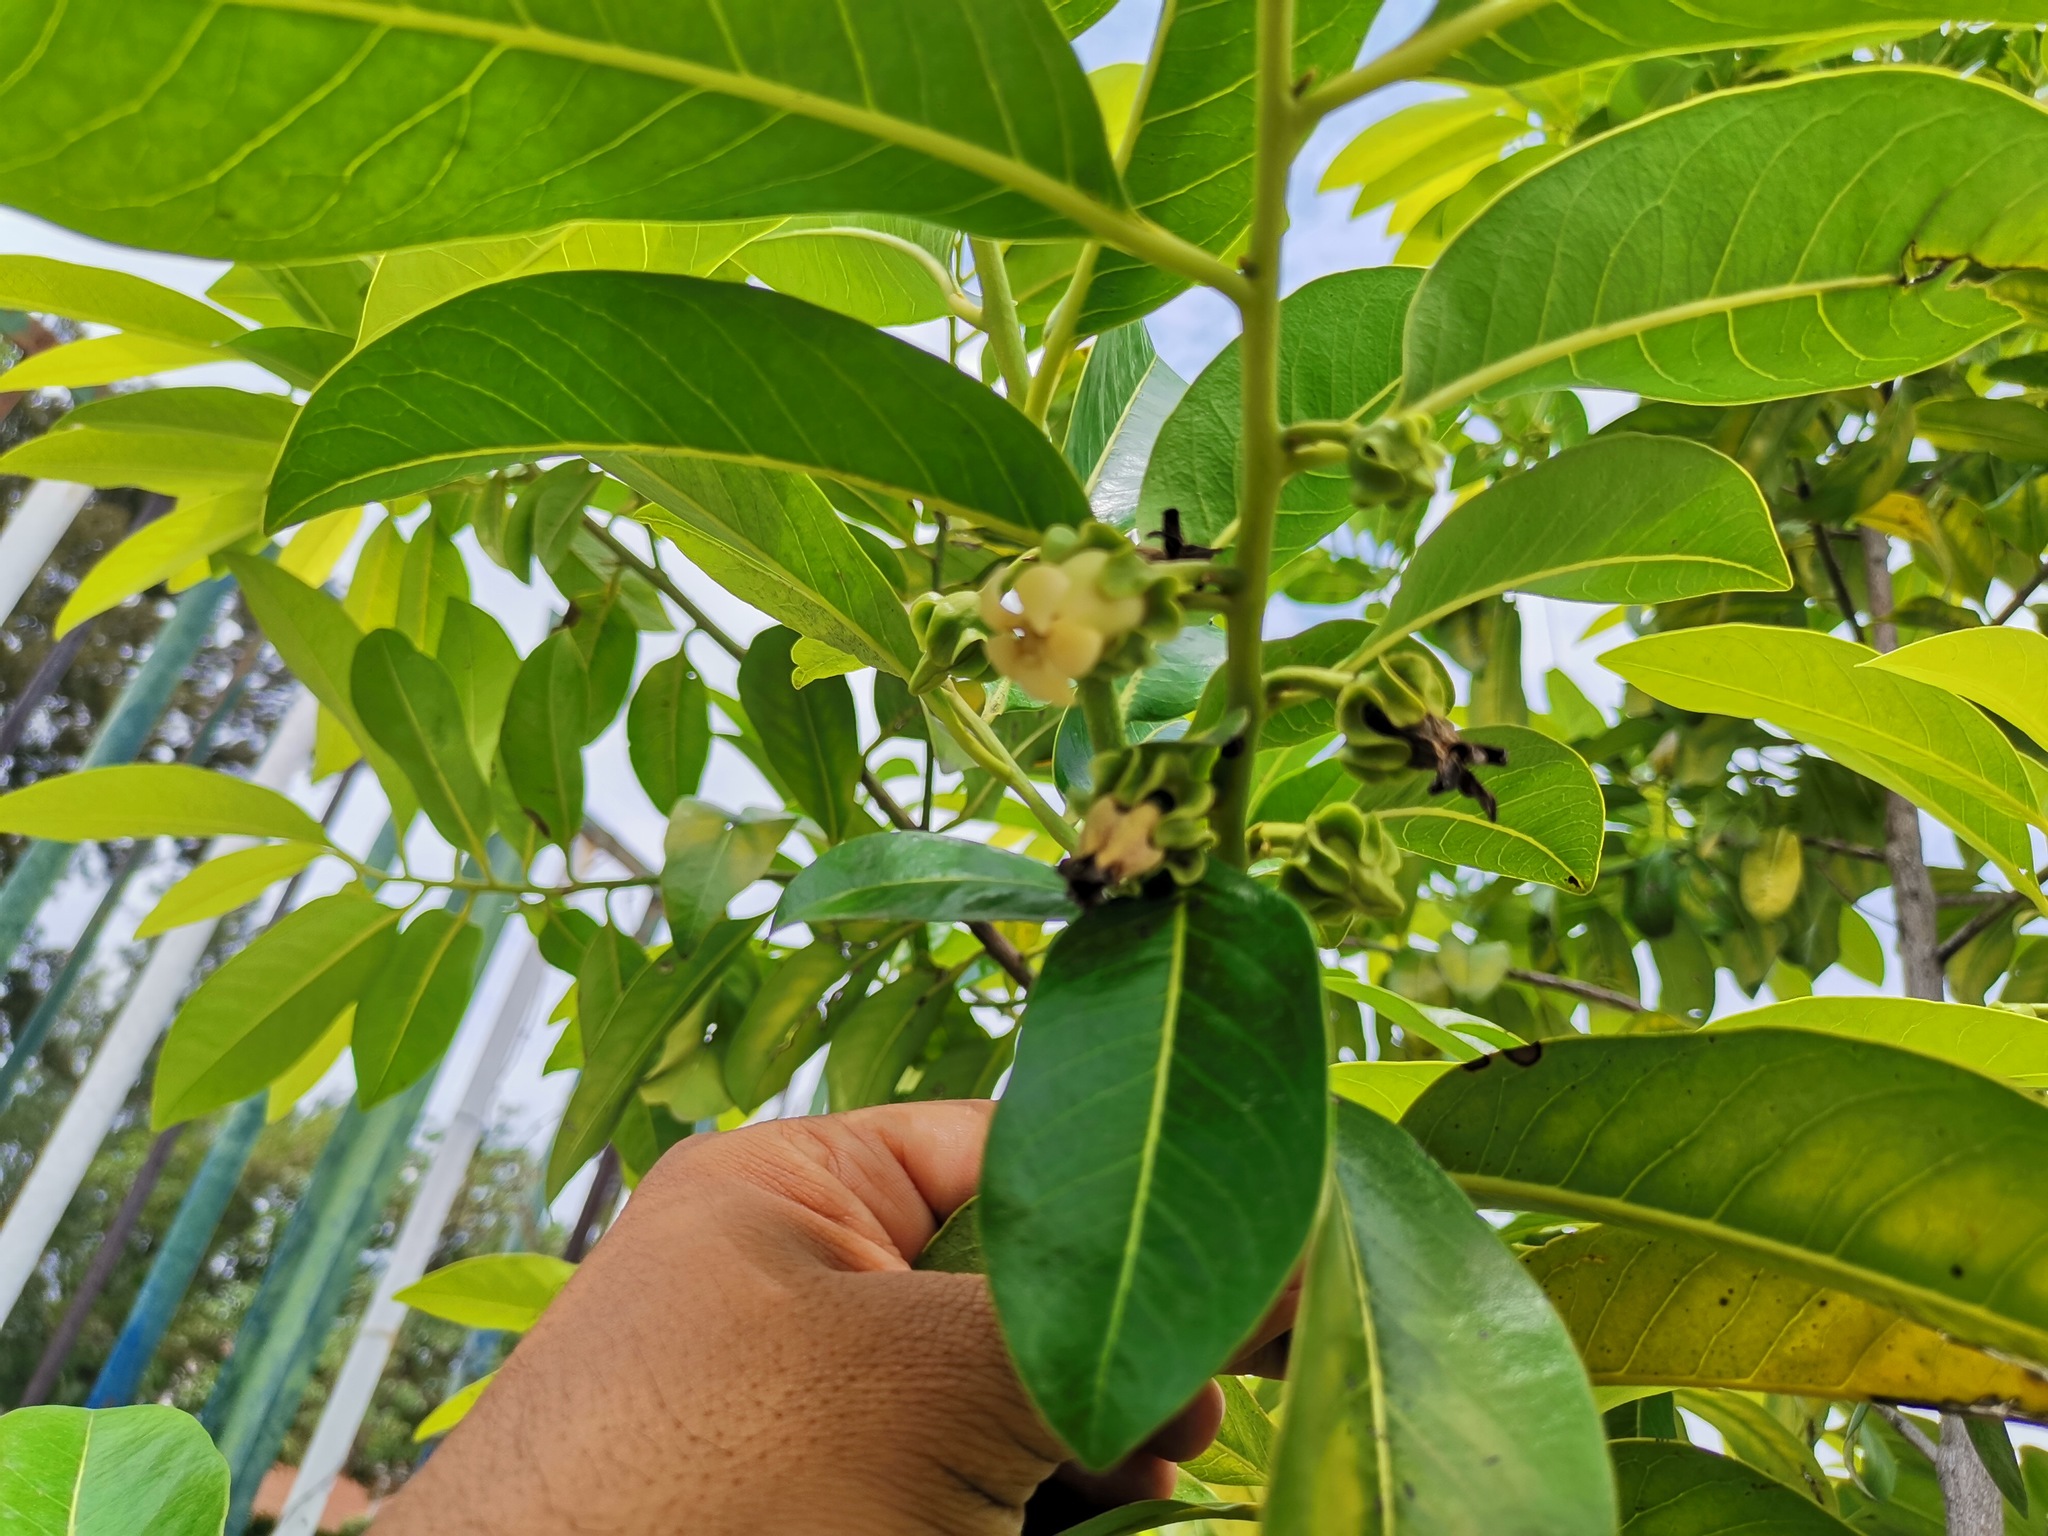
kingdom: Plantae
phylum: Tracheophyta
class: Magnoliopsida
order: Ericales
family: Ebenaceae
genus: Diospyros
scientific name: Diospyros nigra
